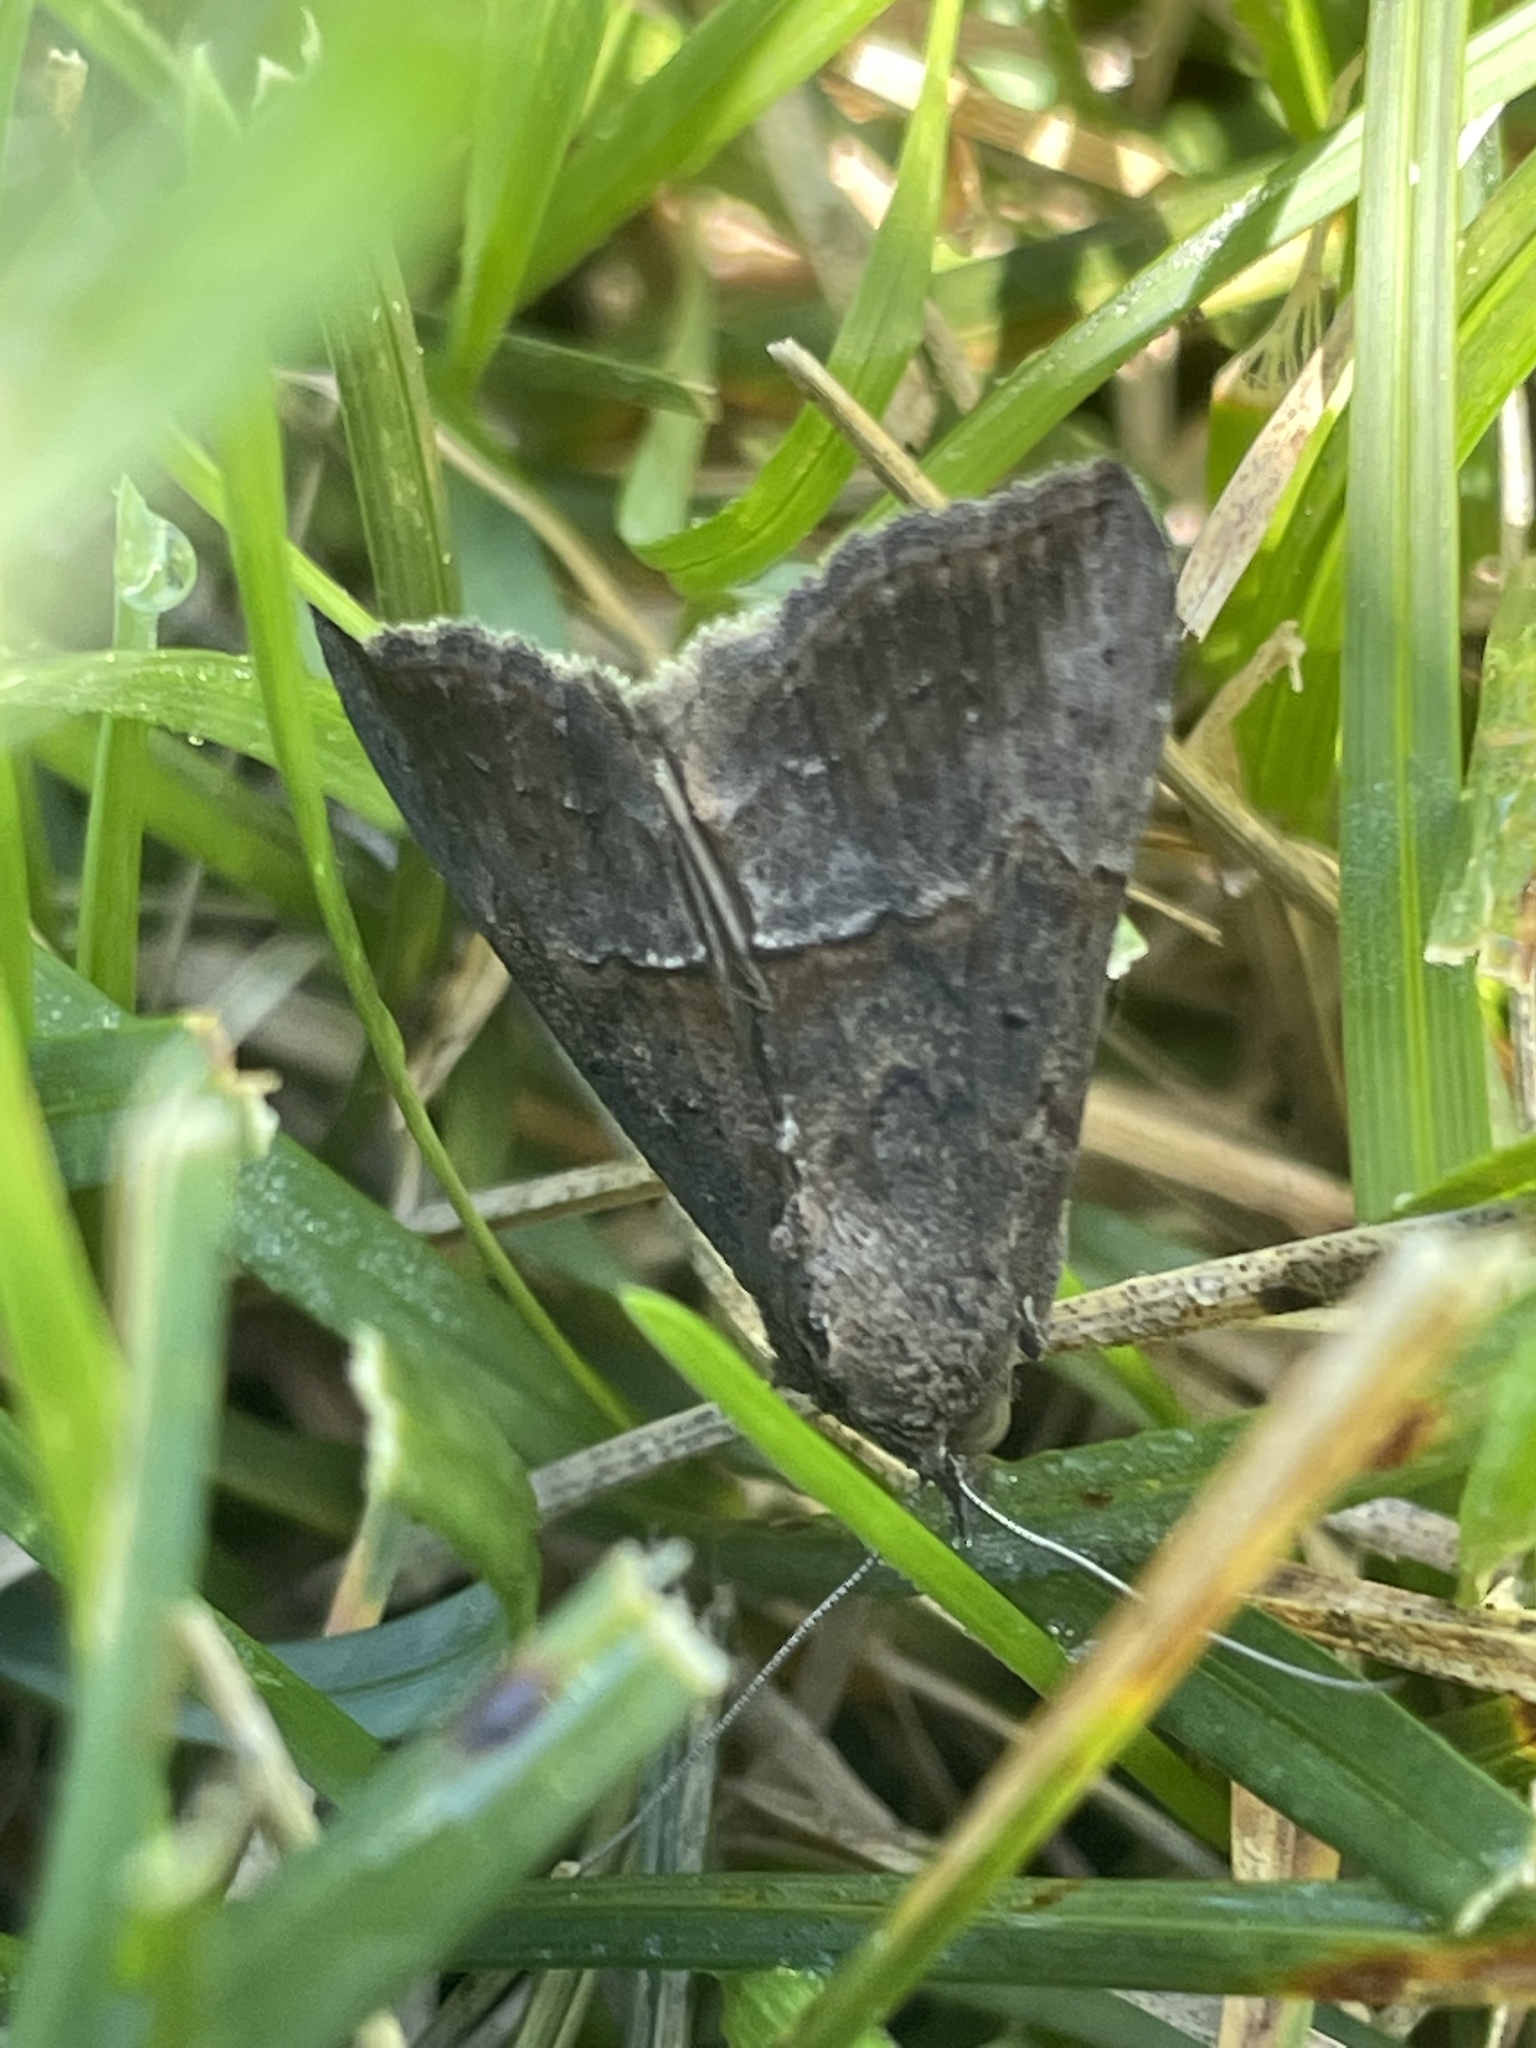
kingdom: Animalia
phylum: Arthropoda
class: Insecta
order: Lepidoptera
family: Erebidae
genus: Hypena
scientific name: Hypena scabra
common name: Green cloverworm
